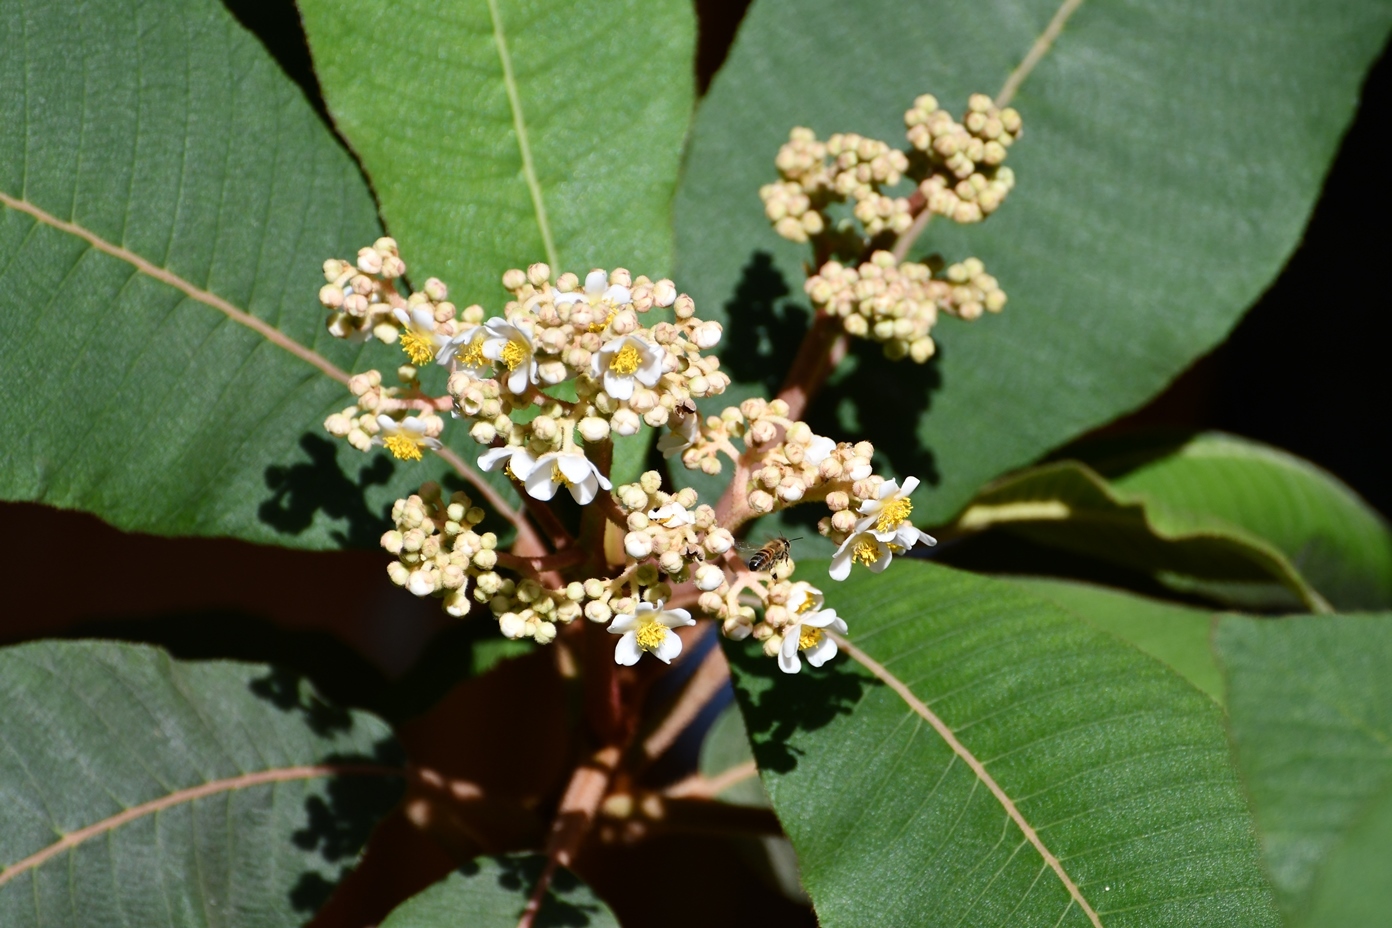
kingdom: Plantae
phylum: Tracheophyta
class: Magnoliopsida
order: Ericales
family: Actinidiaceae
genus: Saurauia
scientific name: Saurauia scabrida
